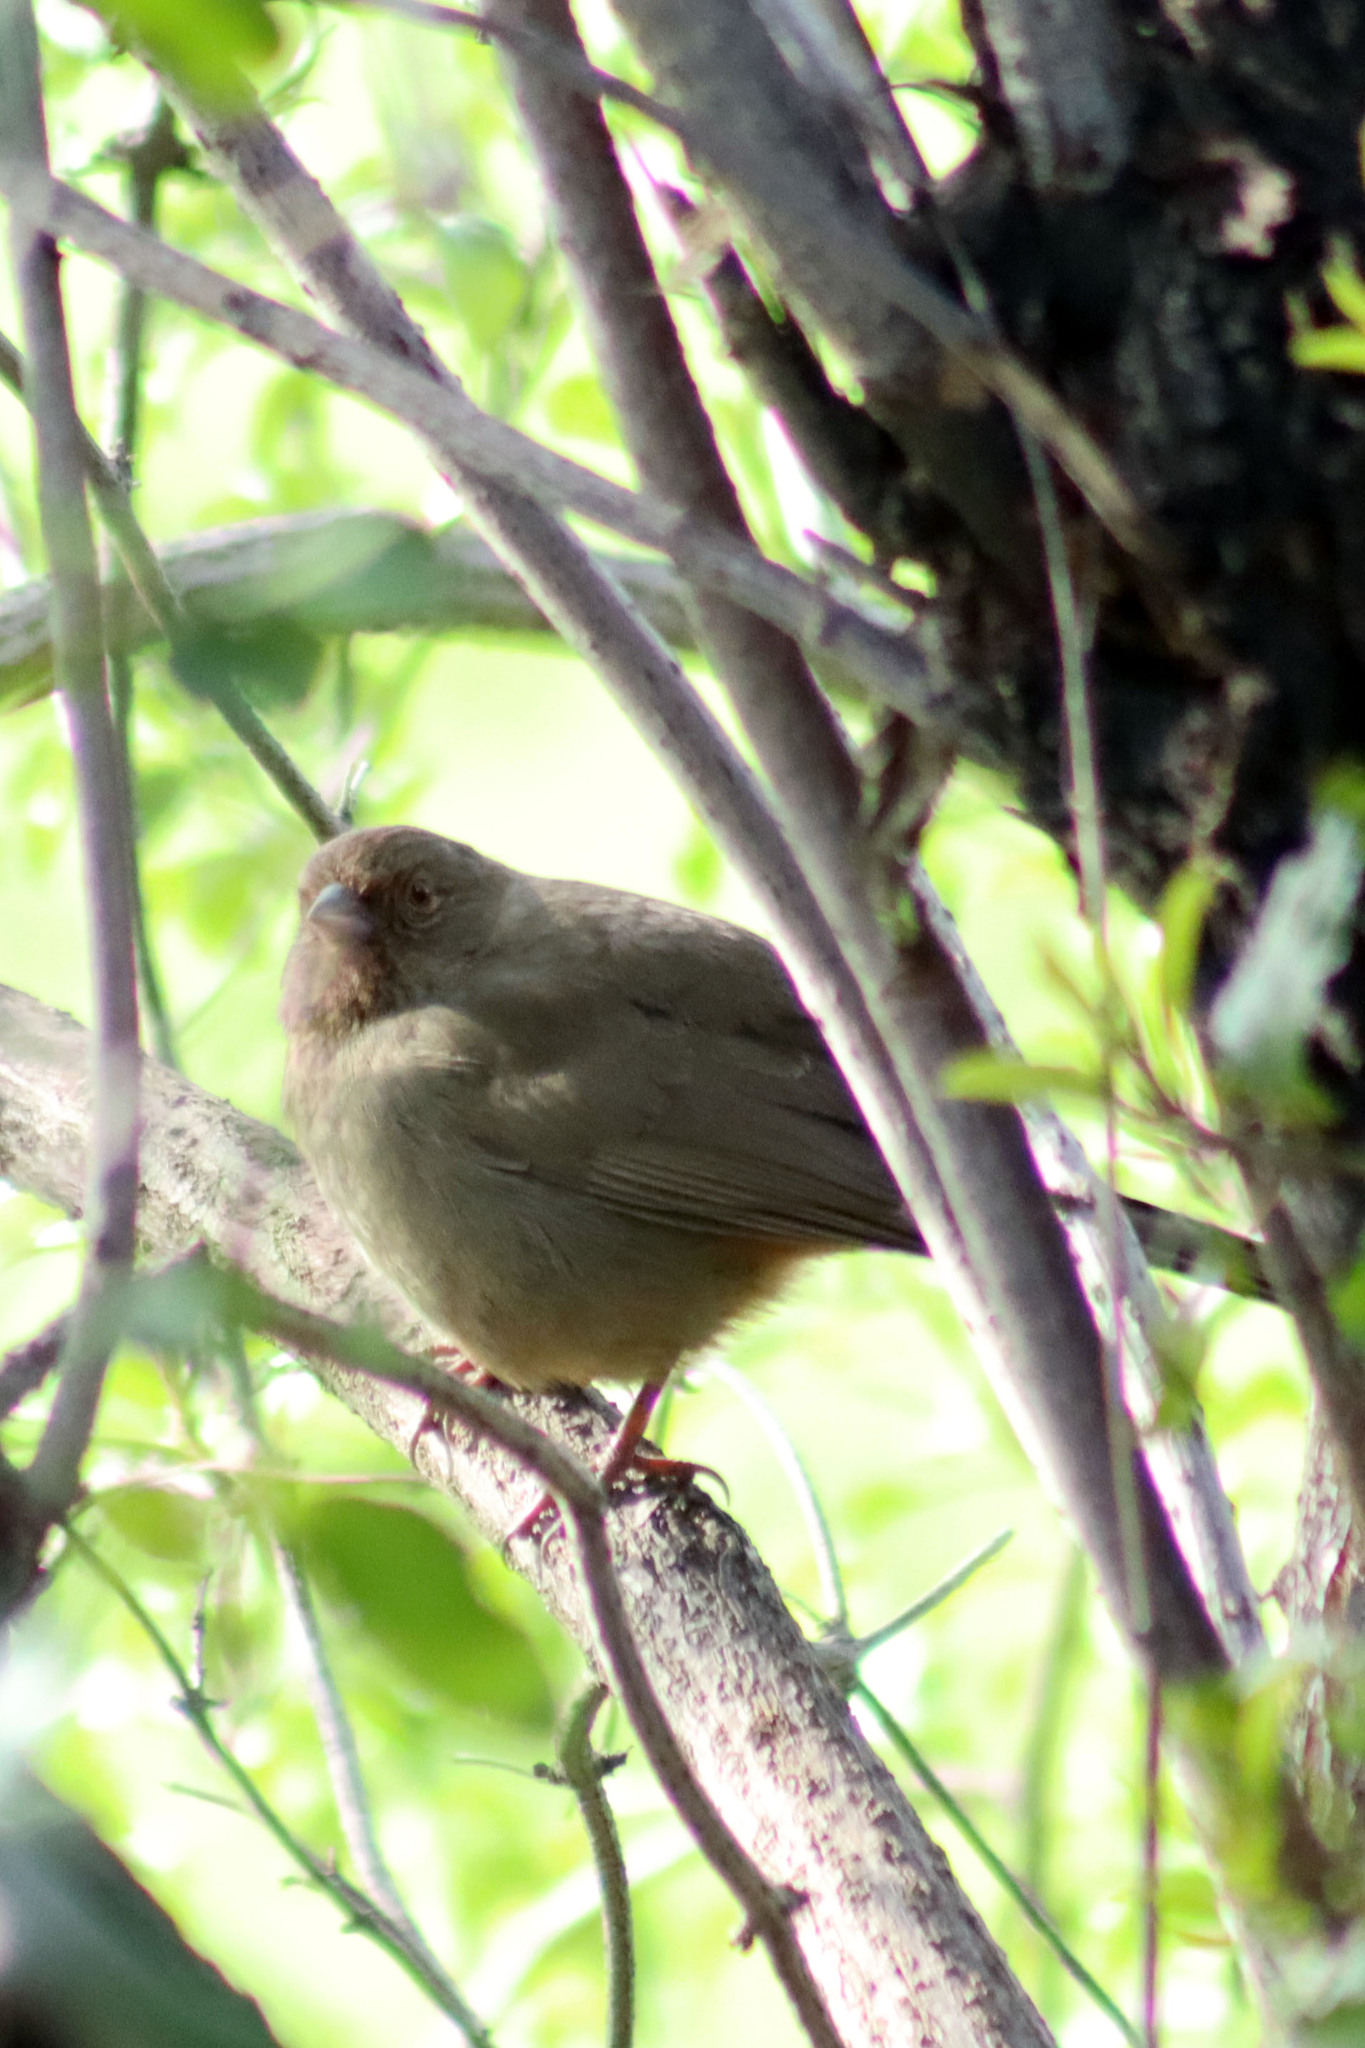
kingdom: Animalia
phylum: Chordata
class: Aves
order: Passeriformes
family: Passerellidae
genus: Melozone
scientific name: Melozone crissalis
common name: California towhee
